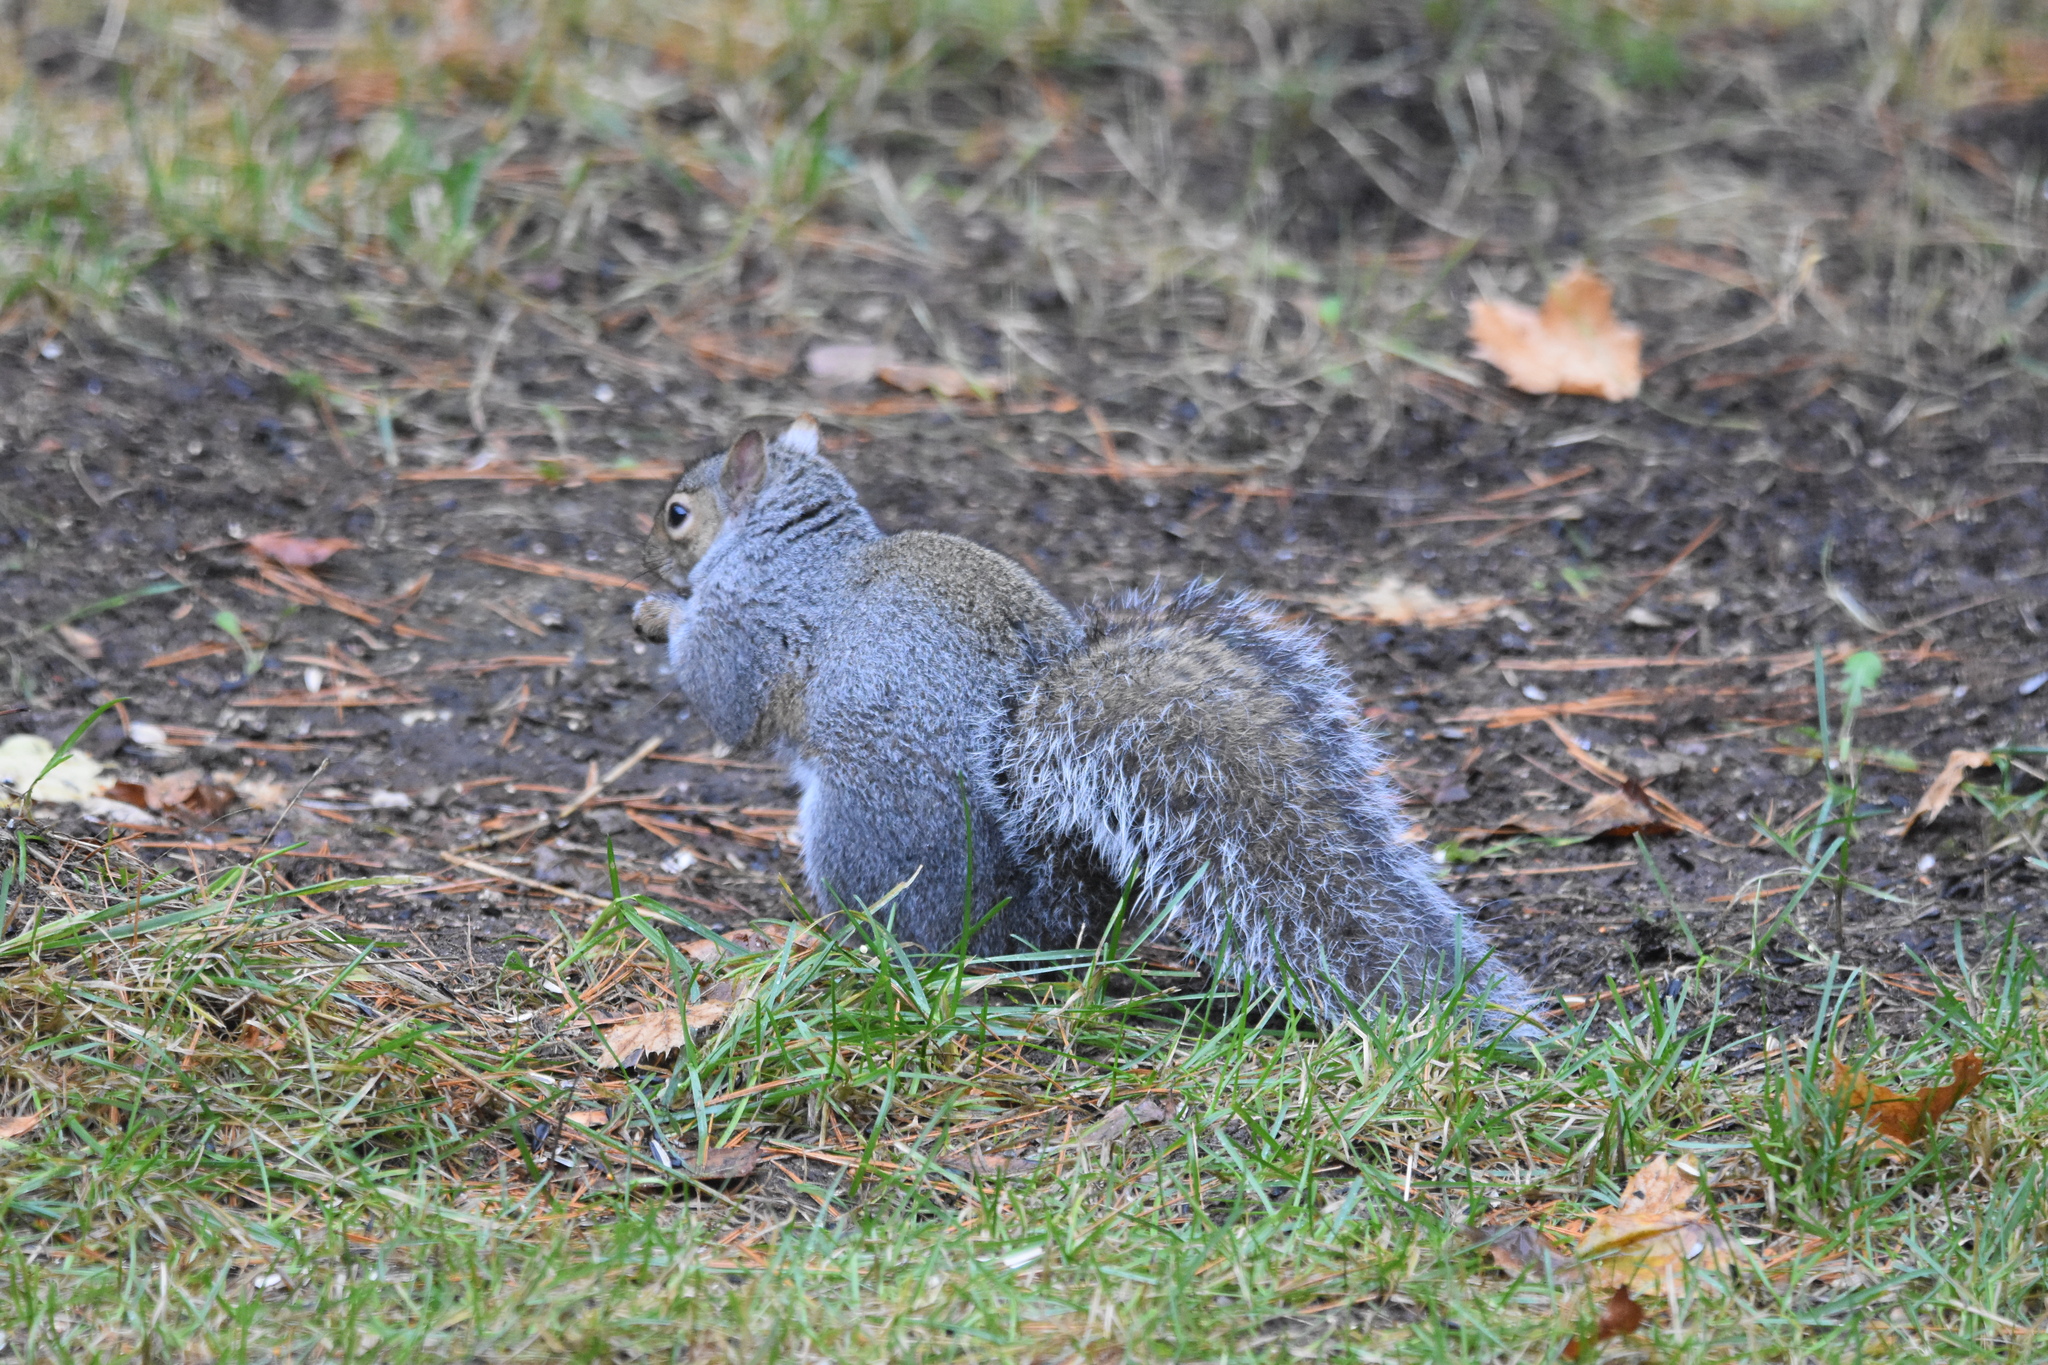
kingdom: Animalia
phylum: Chordata
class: Mammalia
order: Rodentia
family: Sciuridae
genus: Sciurus
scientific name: Sciurus carolinensis
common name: Eastern gray squirrel
